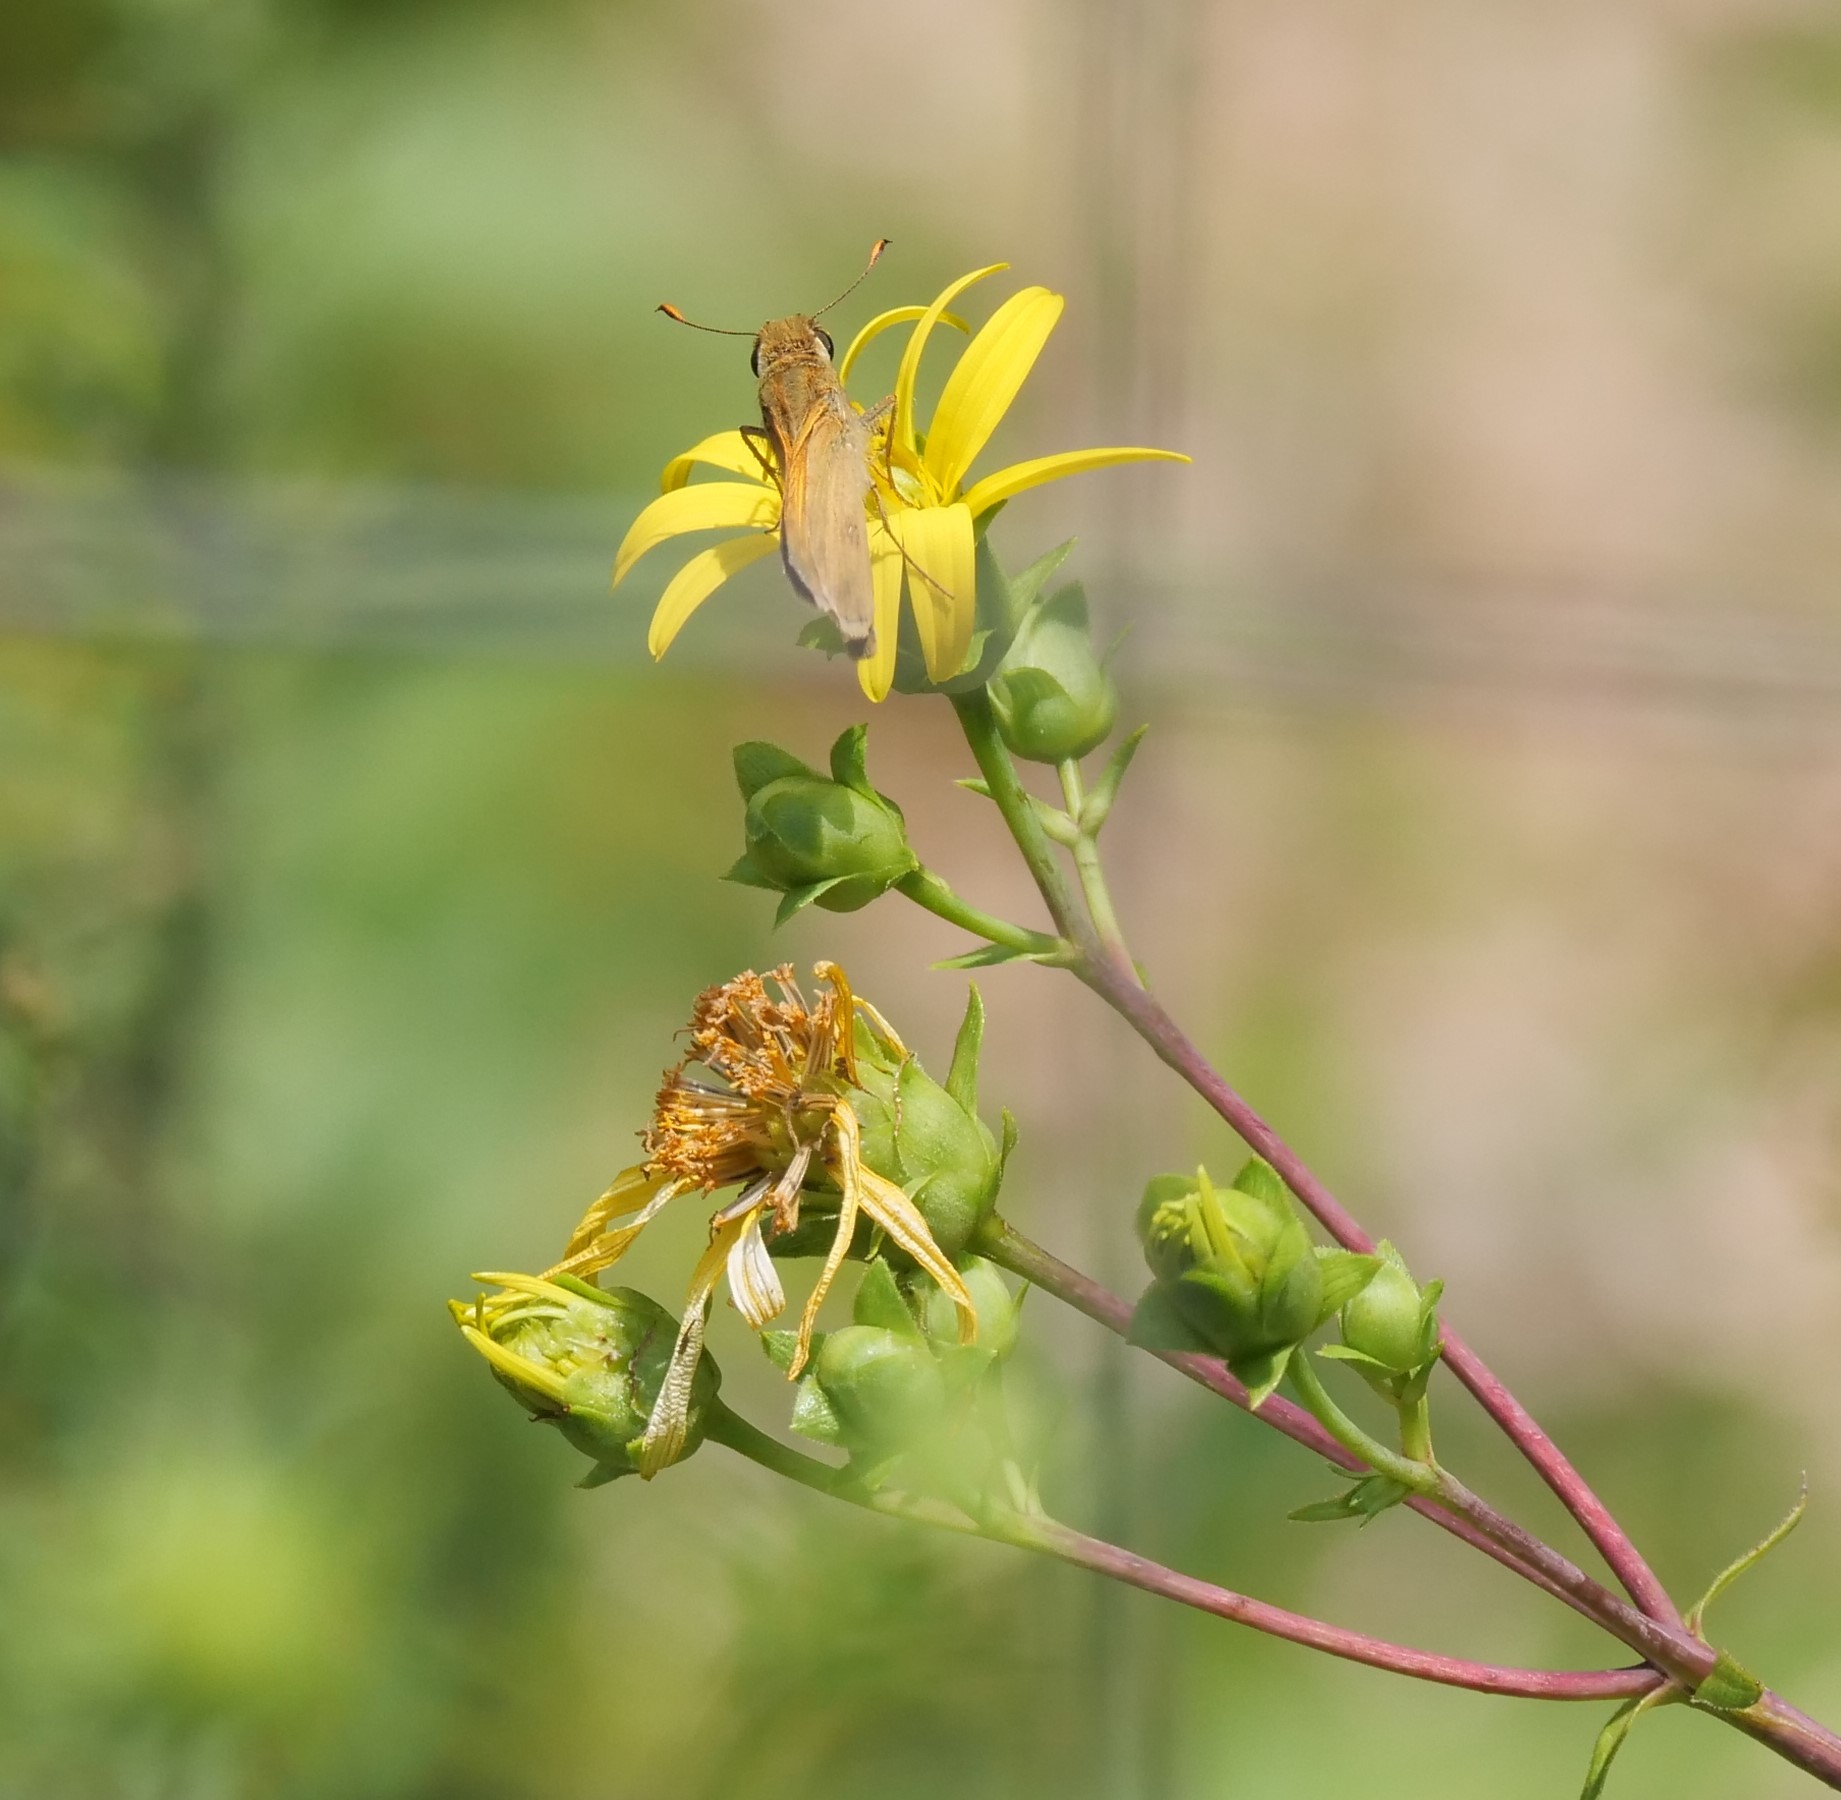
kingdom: Animalia
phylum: Arthropoda
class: Insecta
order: Lepidoptera
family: Hesperiidae
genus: Atalopedes
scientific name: Atalopedes
